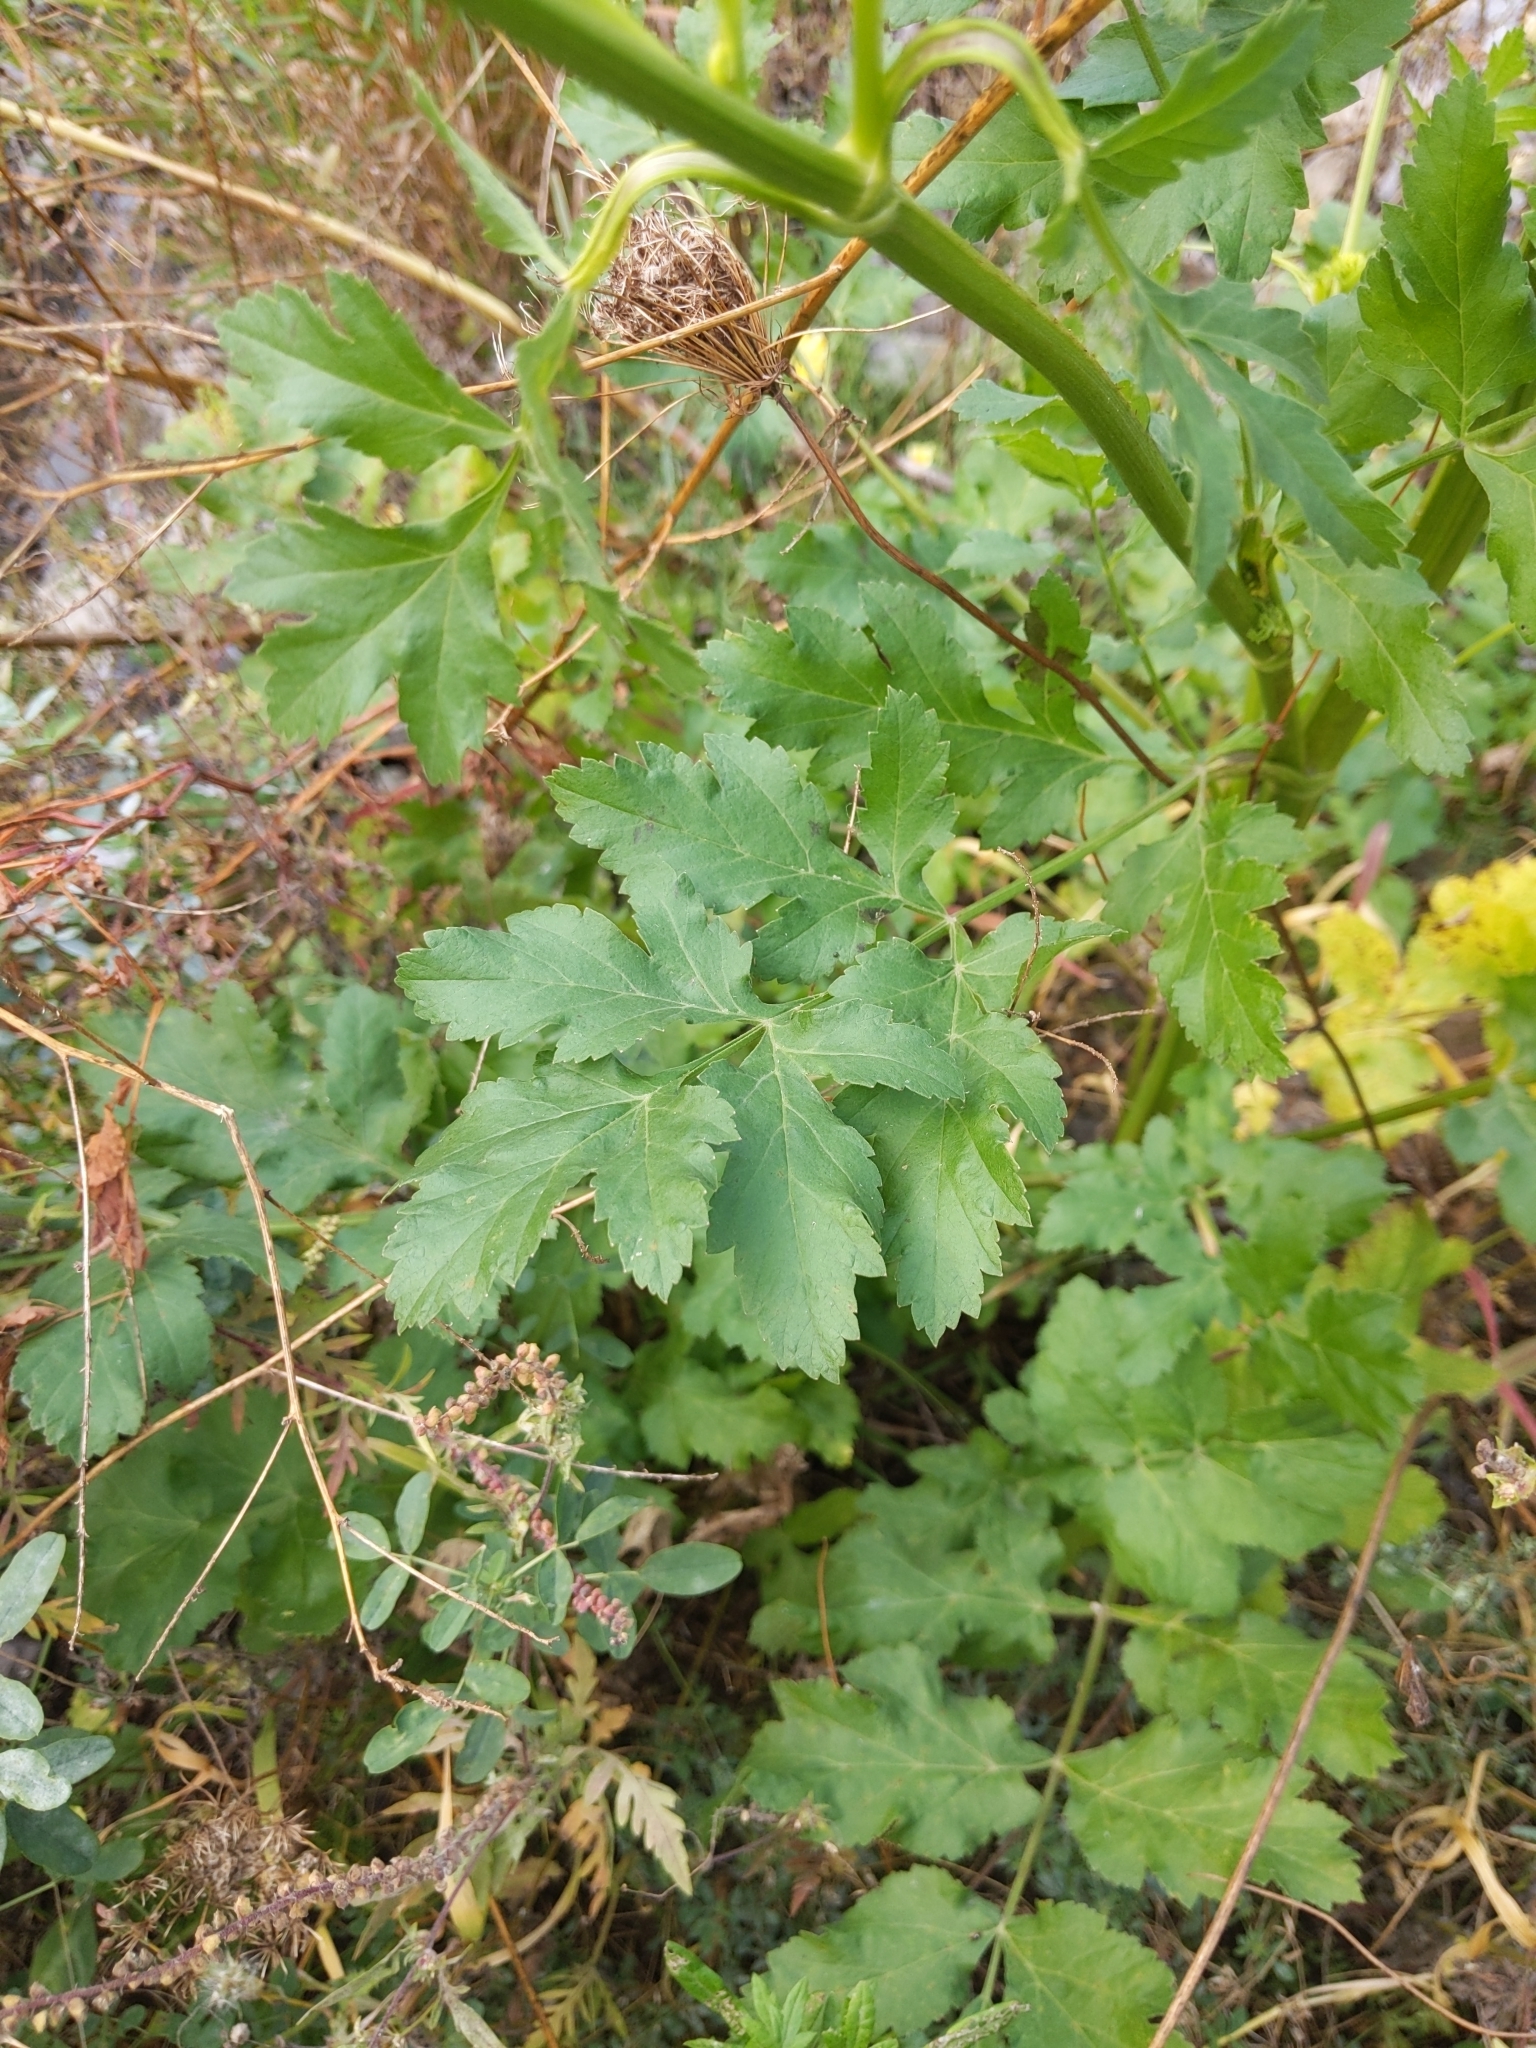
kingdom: Plantae
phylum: Tracheophyta
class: Magnoliopsida
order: Apiales
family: Apiaceae
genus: Pastinaca
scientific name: Pastinaca sativa
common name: Wild parsnip
